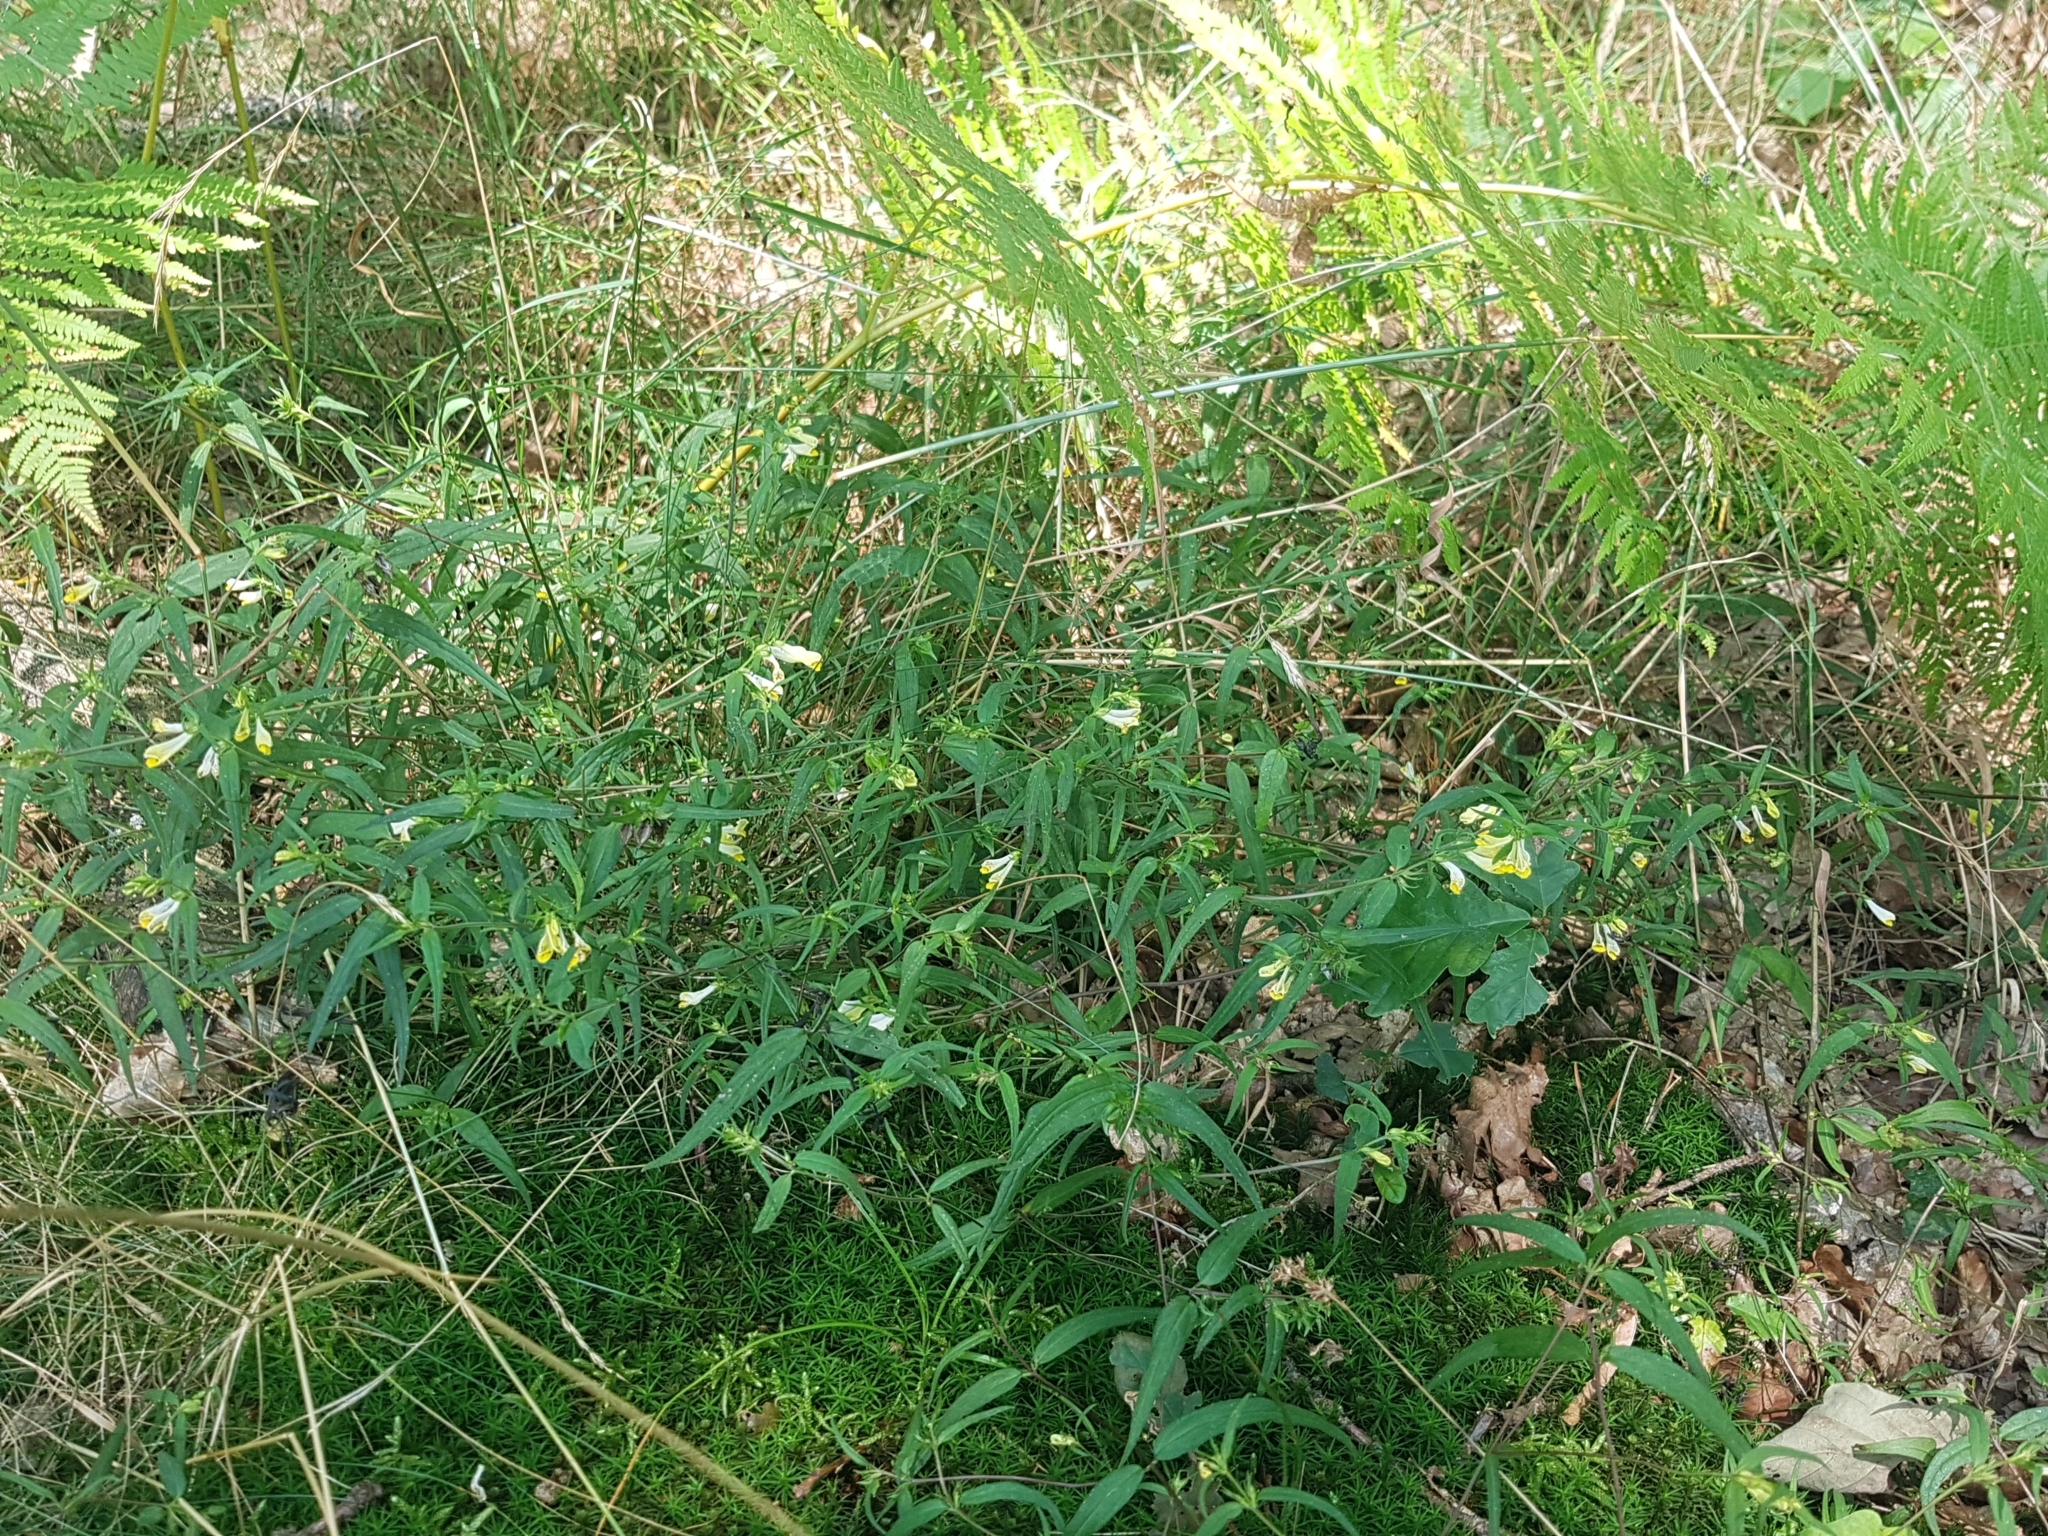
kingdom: Plantae
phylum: Tracheophyta
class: Magnoliopsida
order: Lamiales
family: Orobanchaceae
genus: Melampyrum
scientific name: Melampyrum pratense
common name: Common cow-wheat
